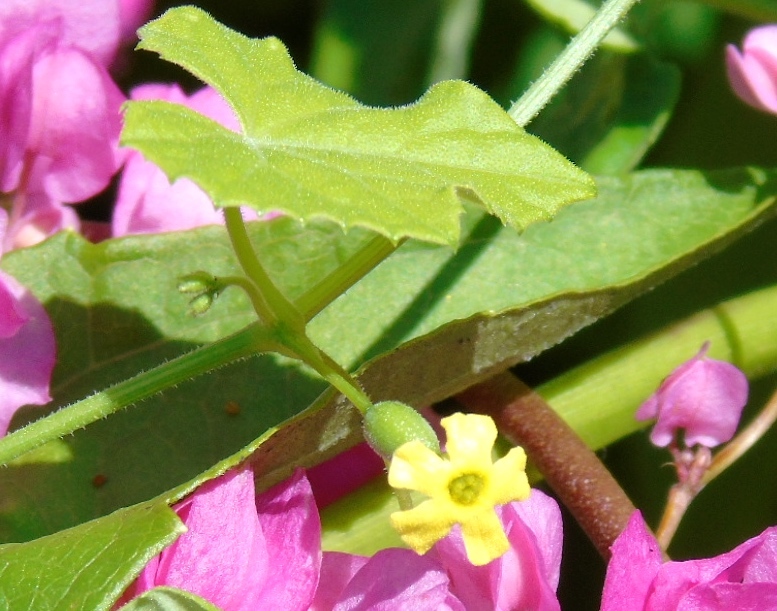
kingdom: Plantae
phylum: Tracheophyta
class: Magnoliopsida
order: Cucurbitales
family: Cucurbitaceae
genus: Melothria
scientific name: Melothria pendula
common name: Creeping-cucumber
